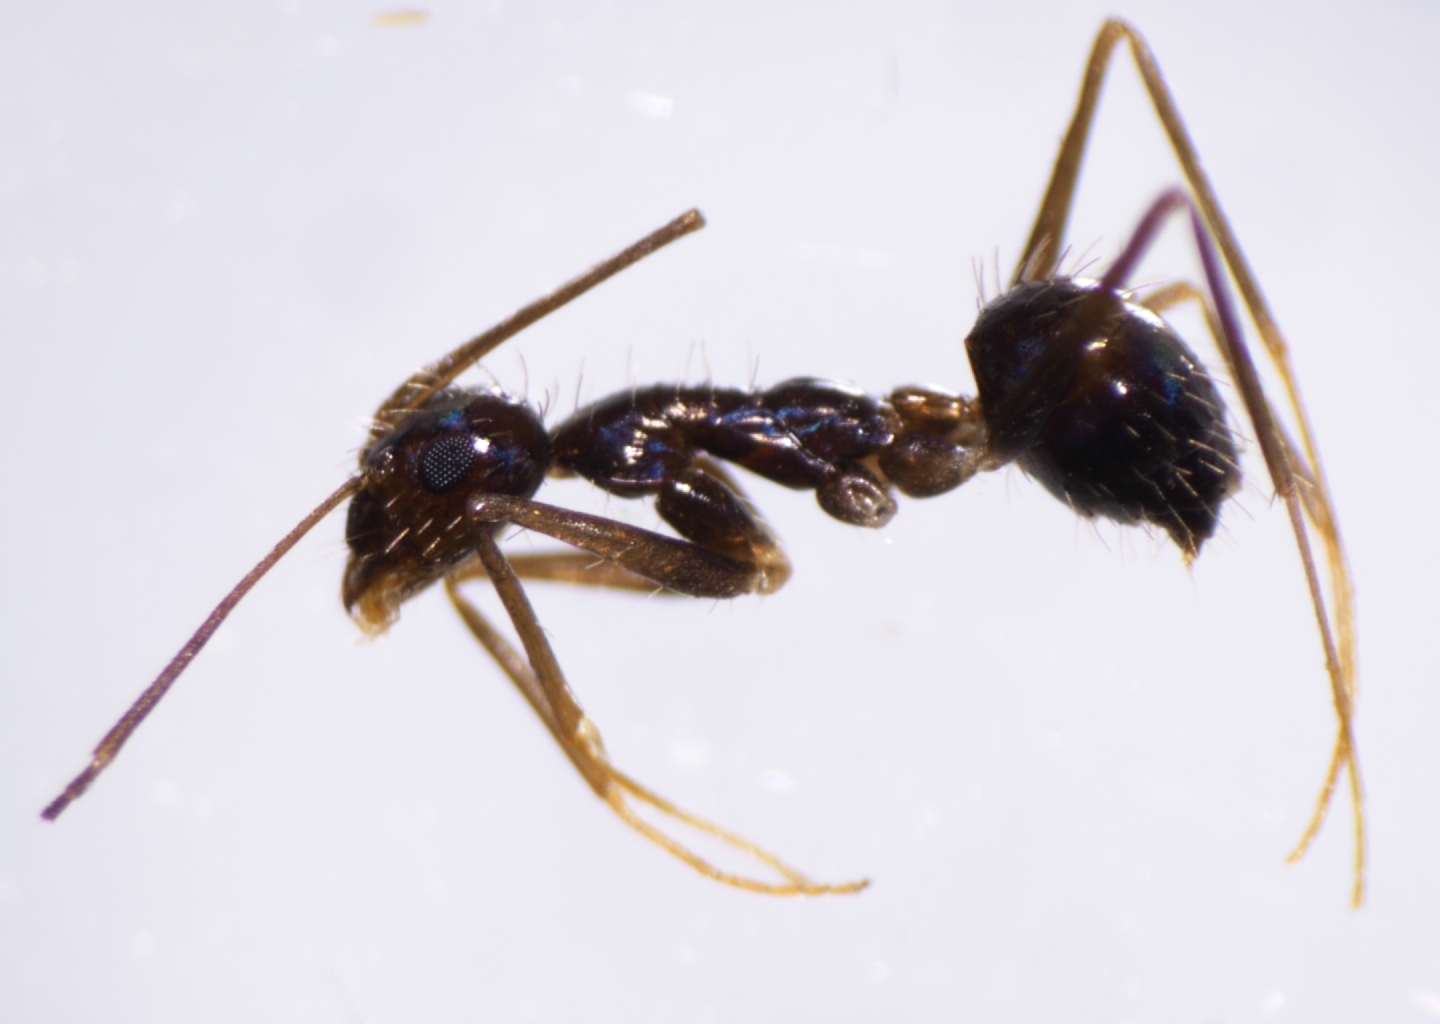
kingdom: Animalia
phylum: Arthropoda
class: Insecta
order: Hymenoptera
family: Formicidae
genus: Paratrechina
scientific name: Paratrechina longicornis
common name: Longhorned crazy ant
